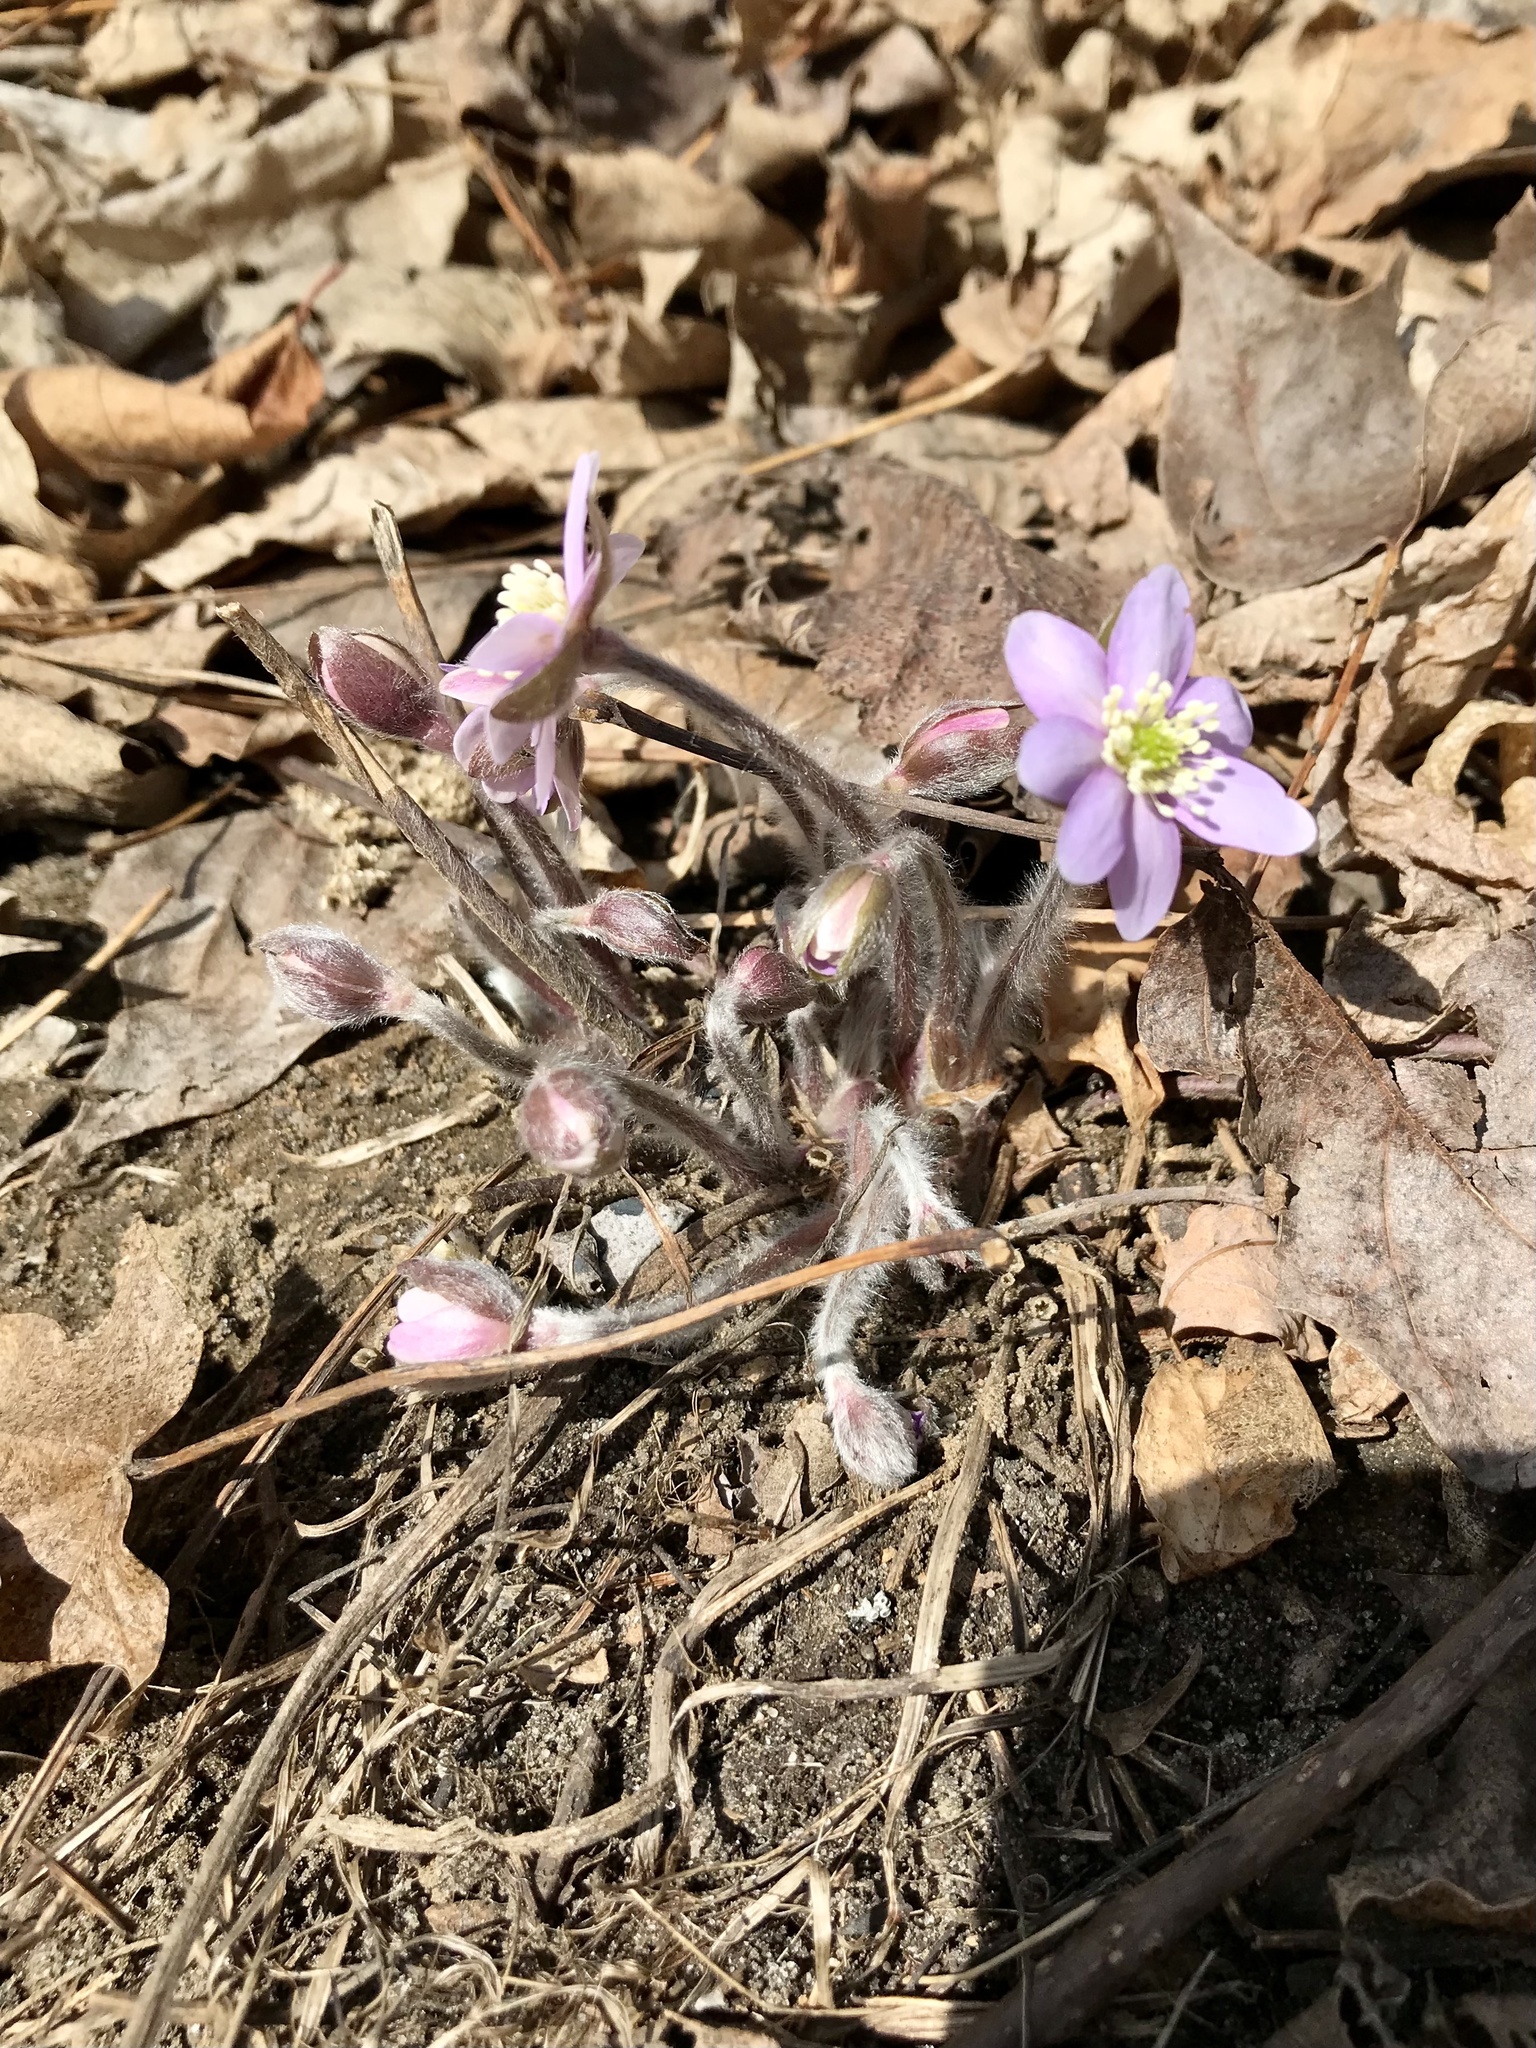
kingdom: Plantae
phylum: Tracheophyta
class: Magnoliopsida
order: Ranunculales
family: Ranunculaceae
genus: Hepatica
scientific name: Hepatica acutiloba
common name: Sharp-lobed hepatica
